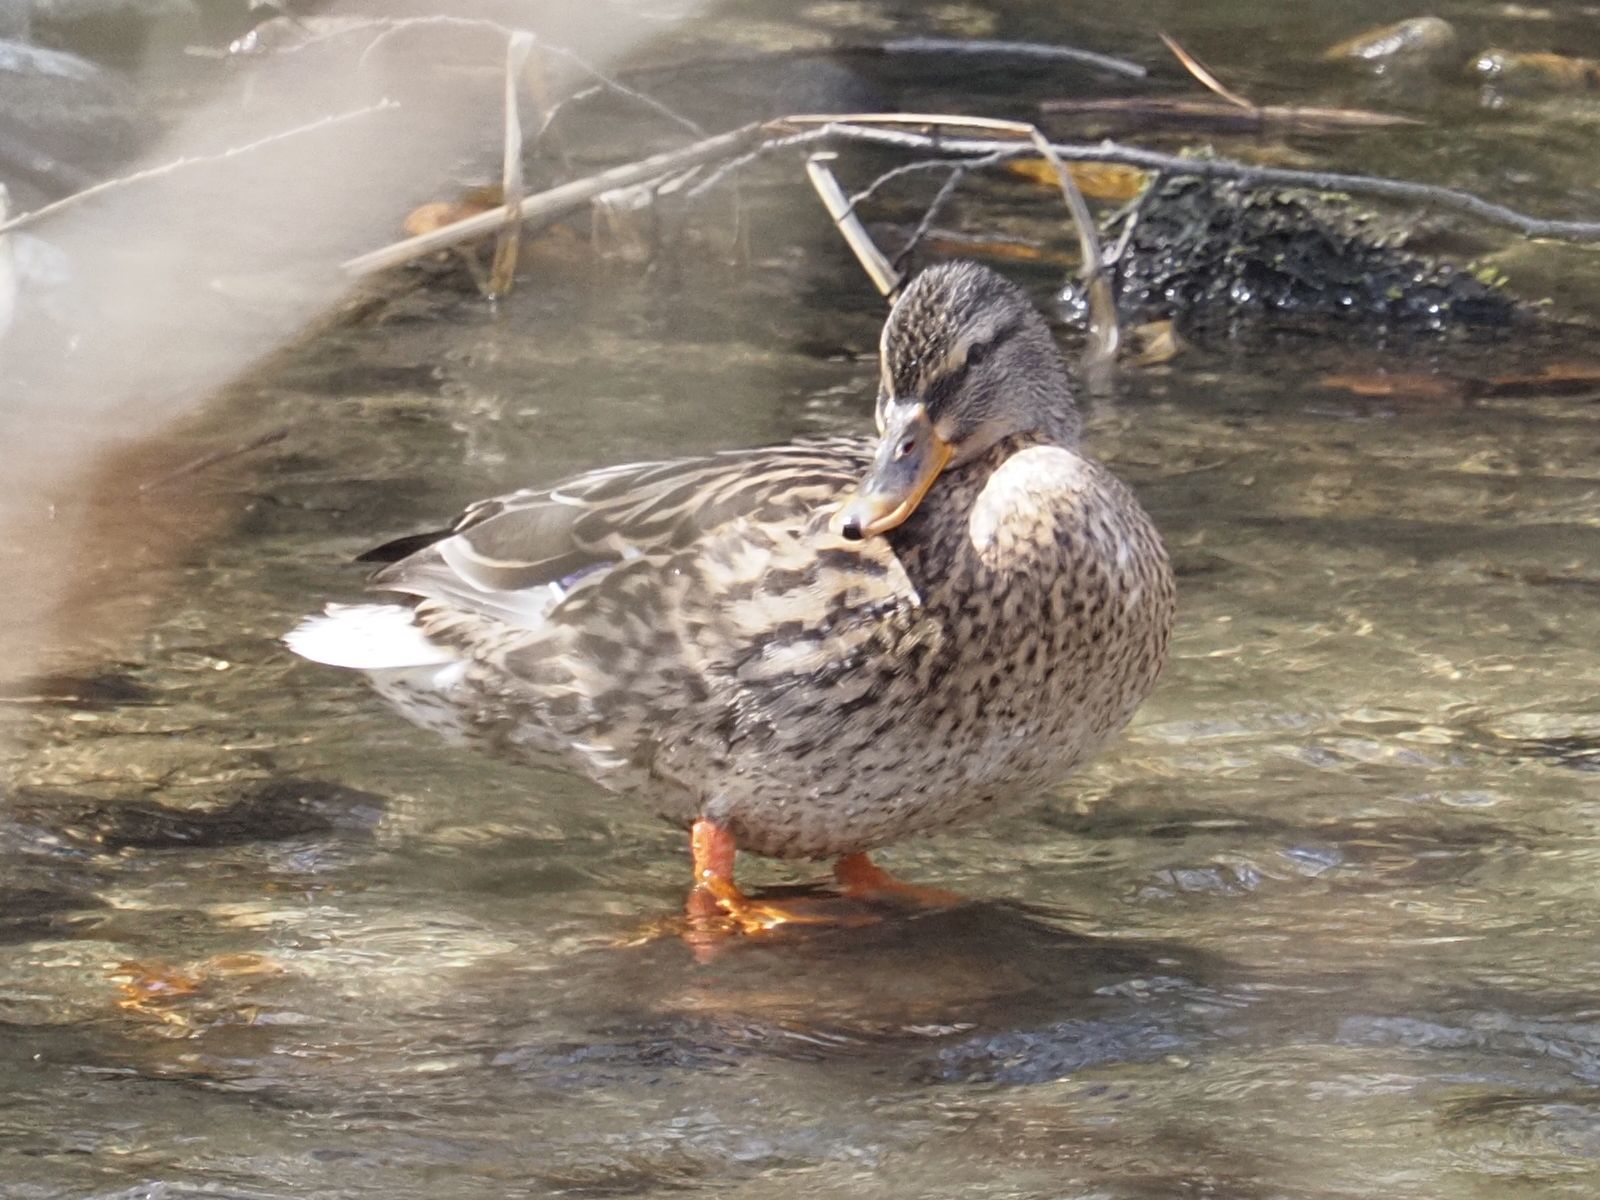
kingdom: Animalia
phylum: Chordata
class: Aves
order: Anseriformes
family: Anatidae
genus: Anas
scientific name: Anas platyrhynchos
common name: Mallard
